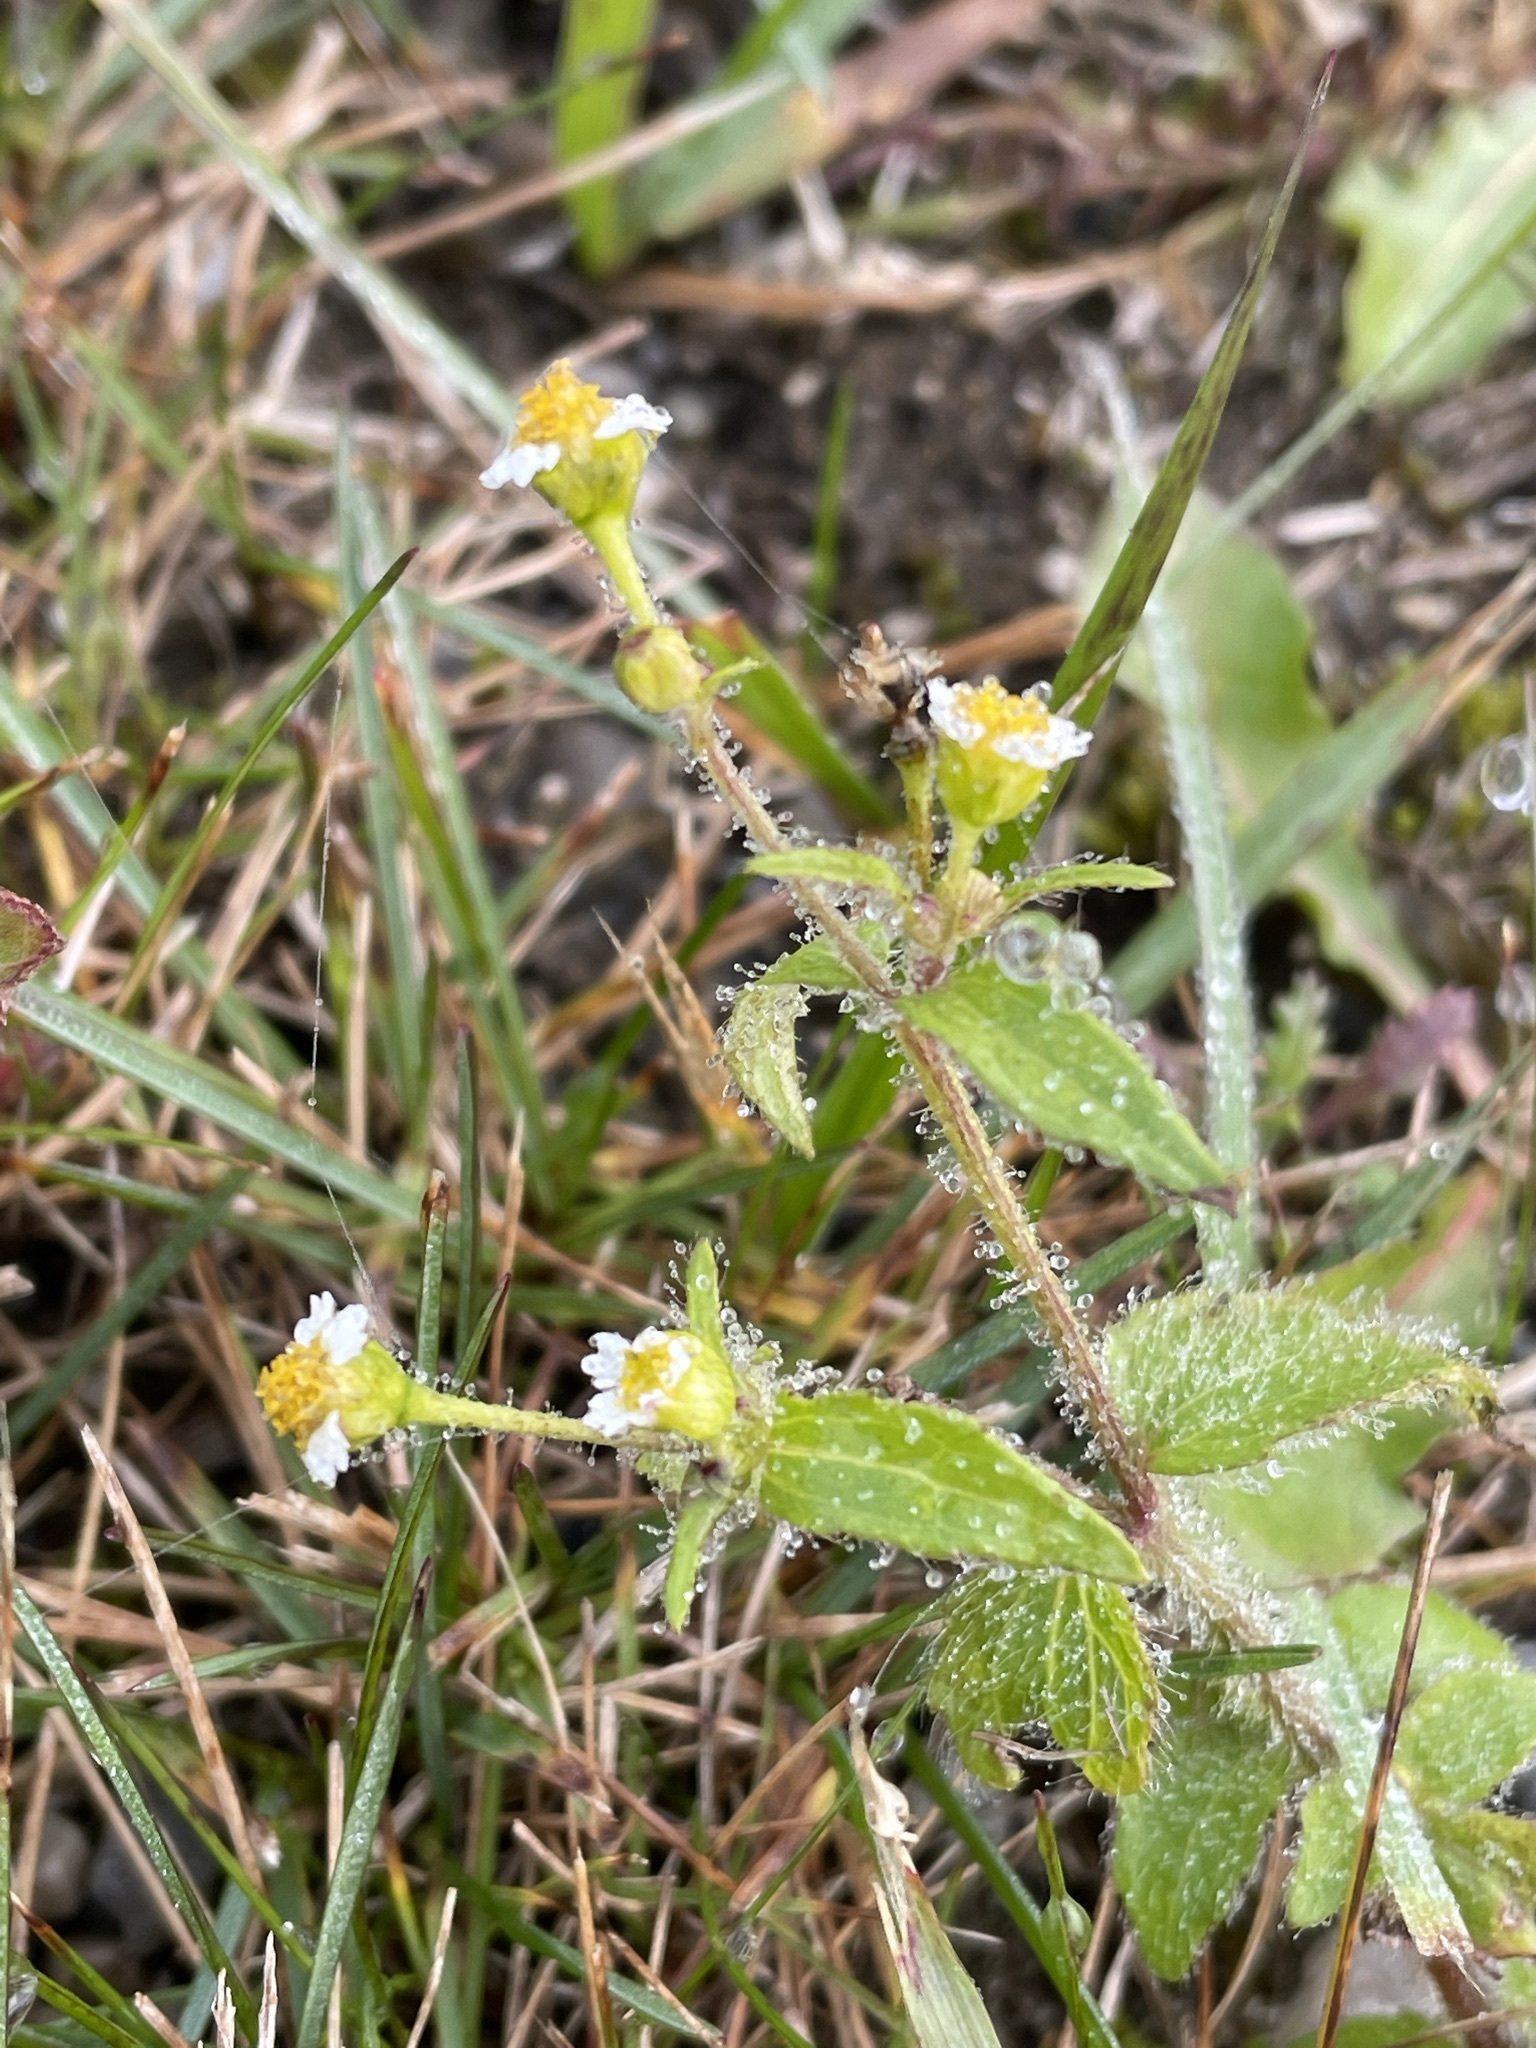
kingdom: Plantae
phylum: Tracheophyta
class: Magnoliopsida
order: Asterales
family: Asteraceae
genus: Galinsoga
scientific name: Galinsoga quadriradiata
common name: Shaggy soldier
